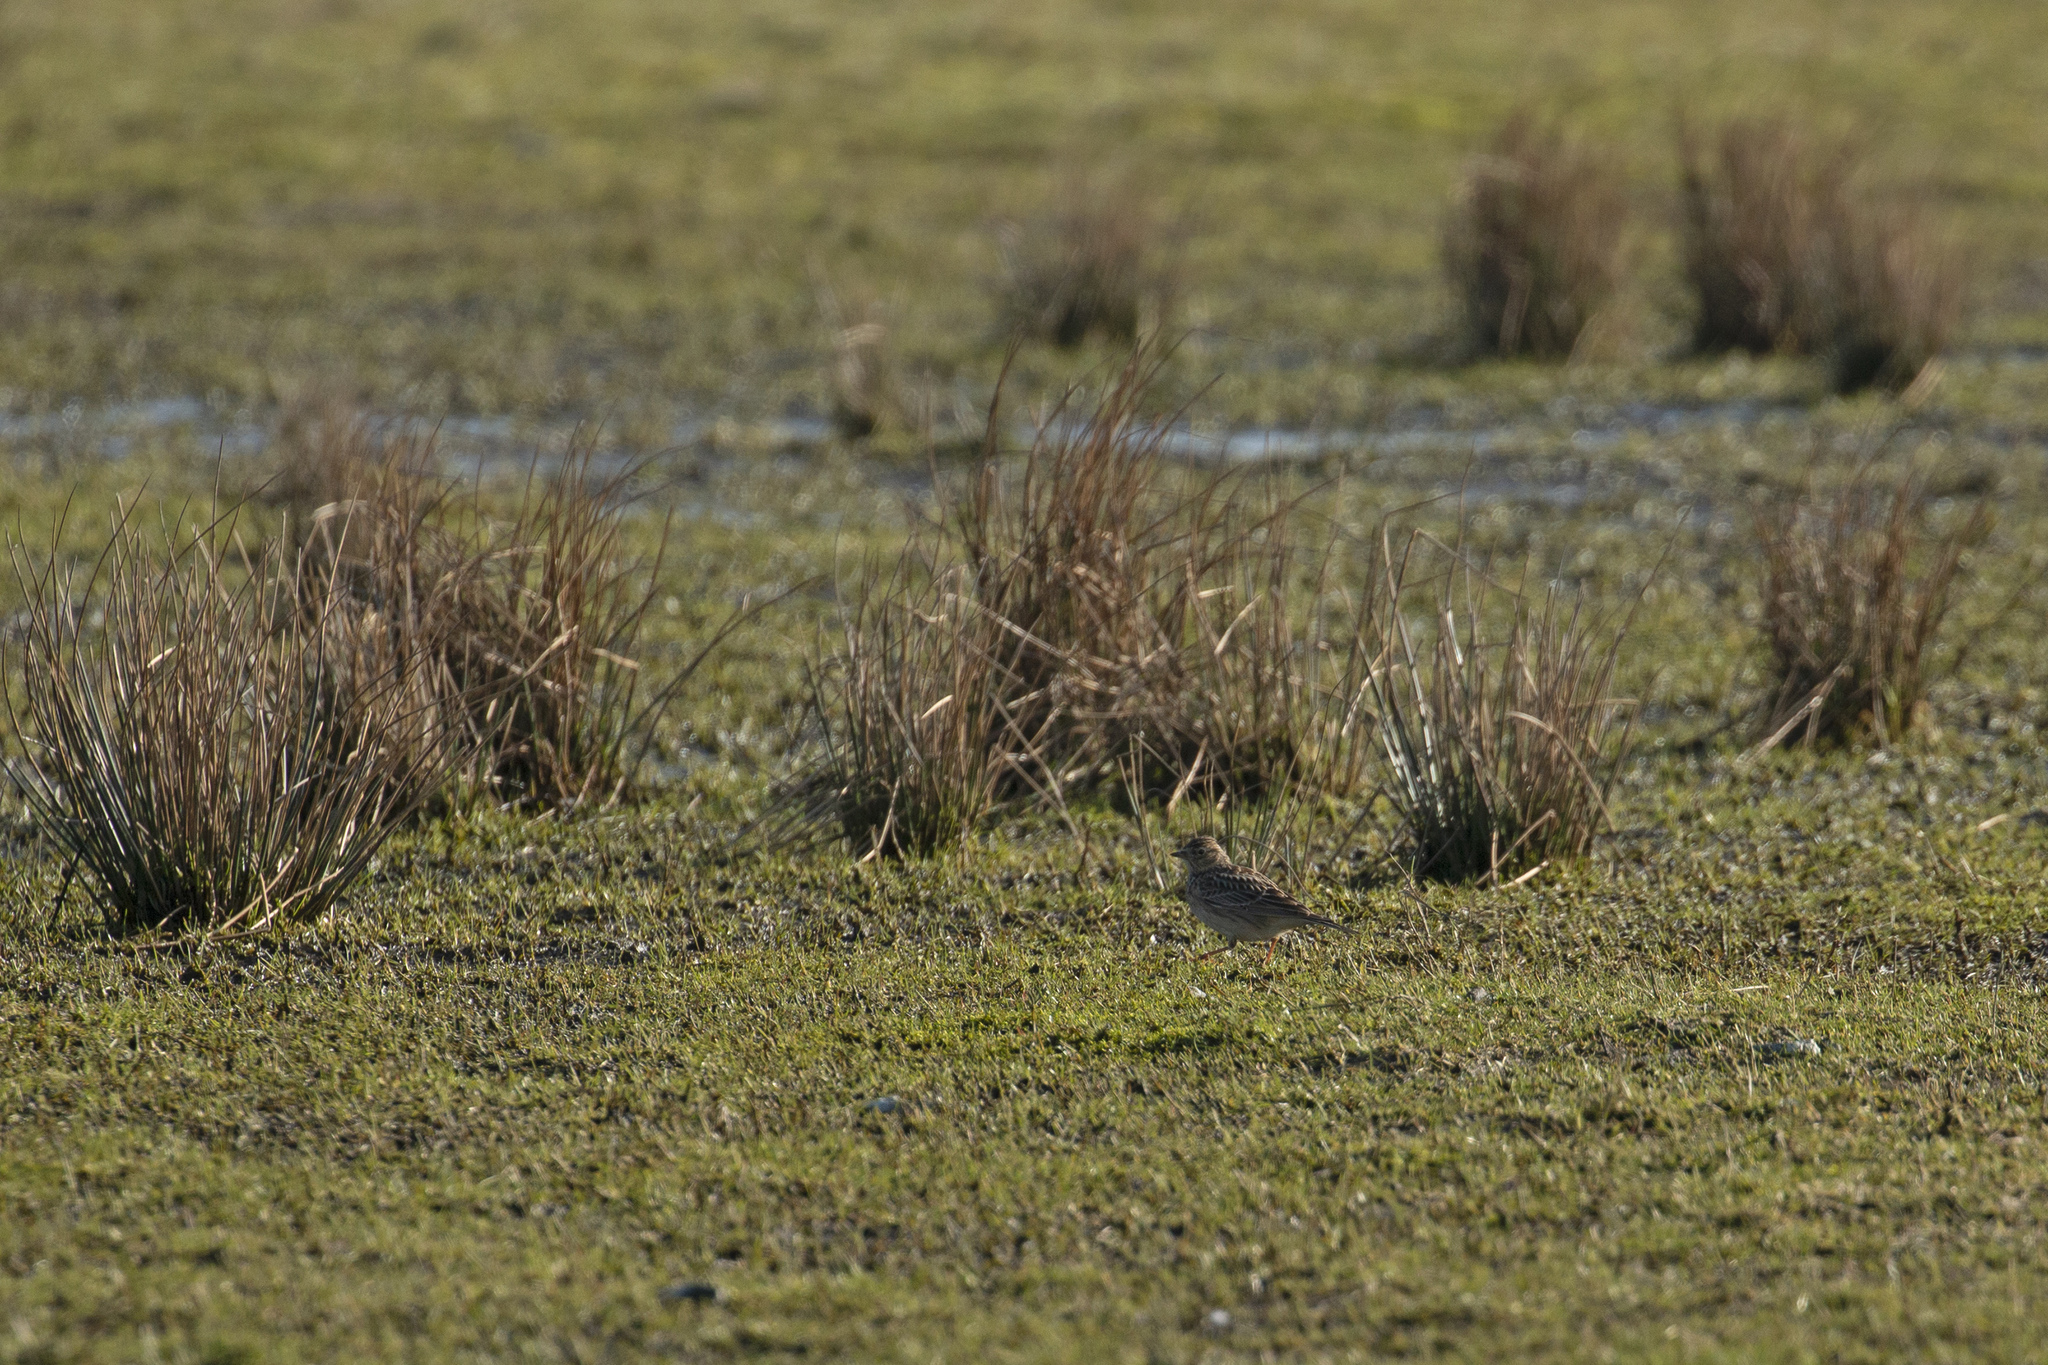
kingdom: Animalia
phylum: Chordata
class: Aves
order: Passeriformes
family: Alaudidae
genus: Alauda
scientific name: Alauda arvensis
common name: Eurasian skylark
